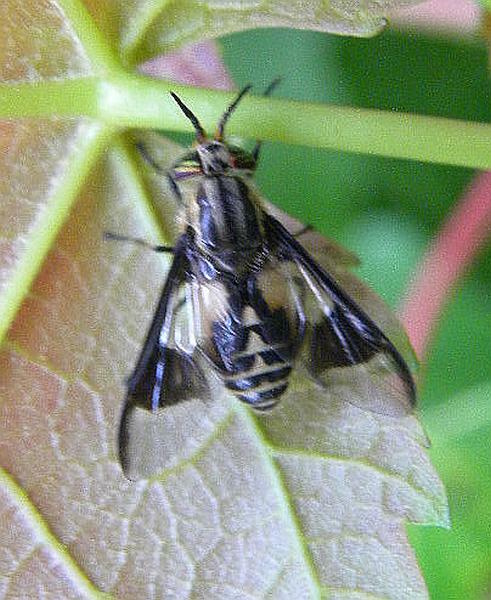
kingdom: Animalia
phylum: Arthropoda
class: Insecta
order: Diptera
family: Tabanidae
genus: Chrysops
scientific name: Chrysops callidus
